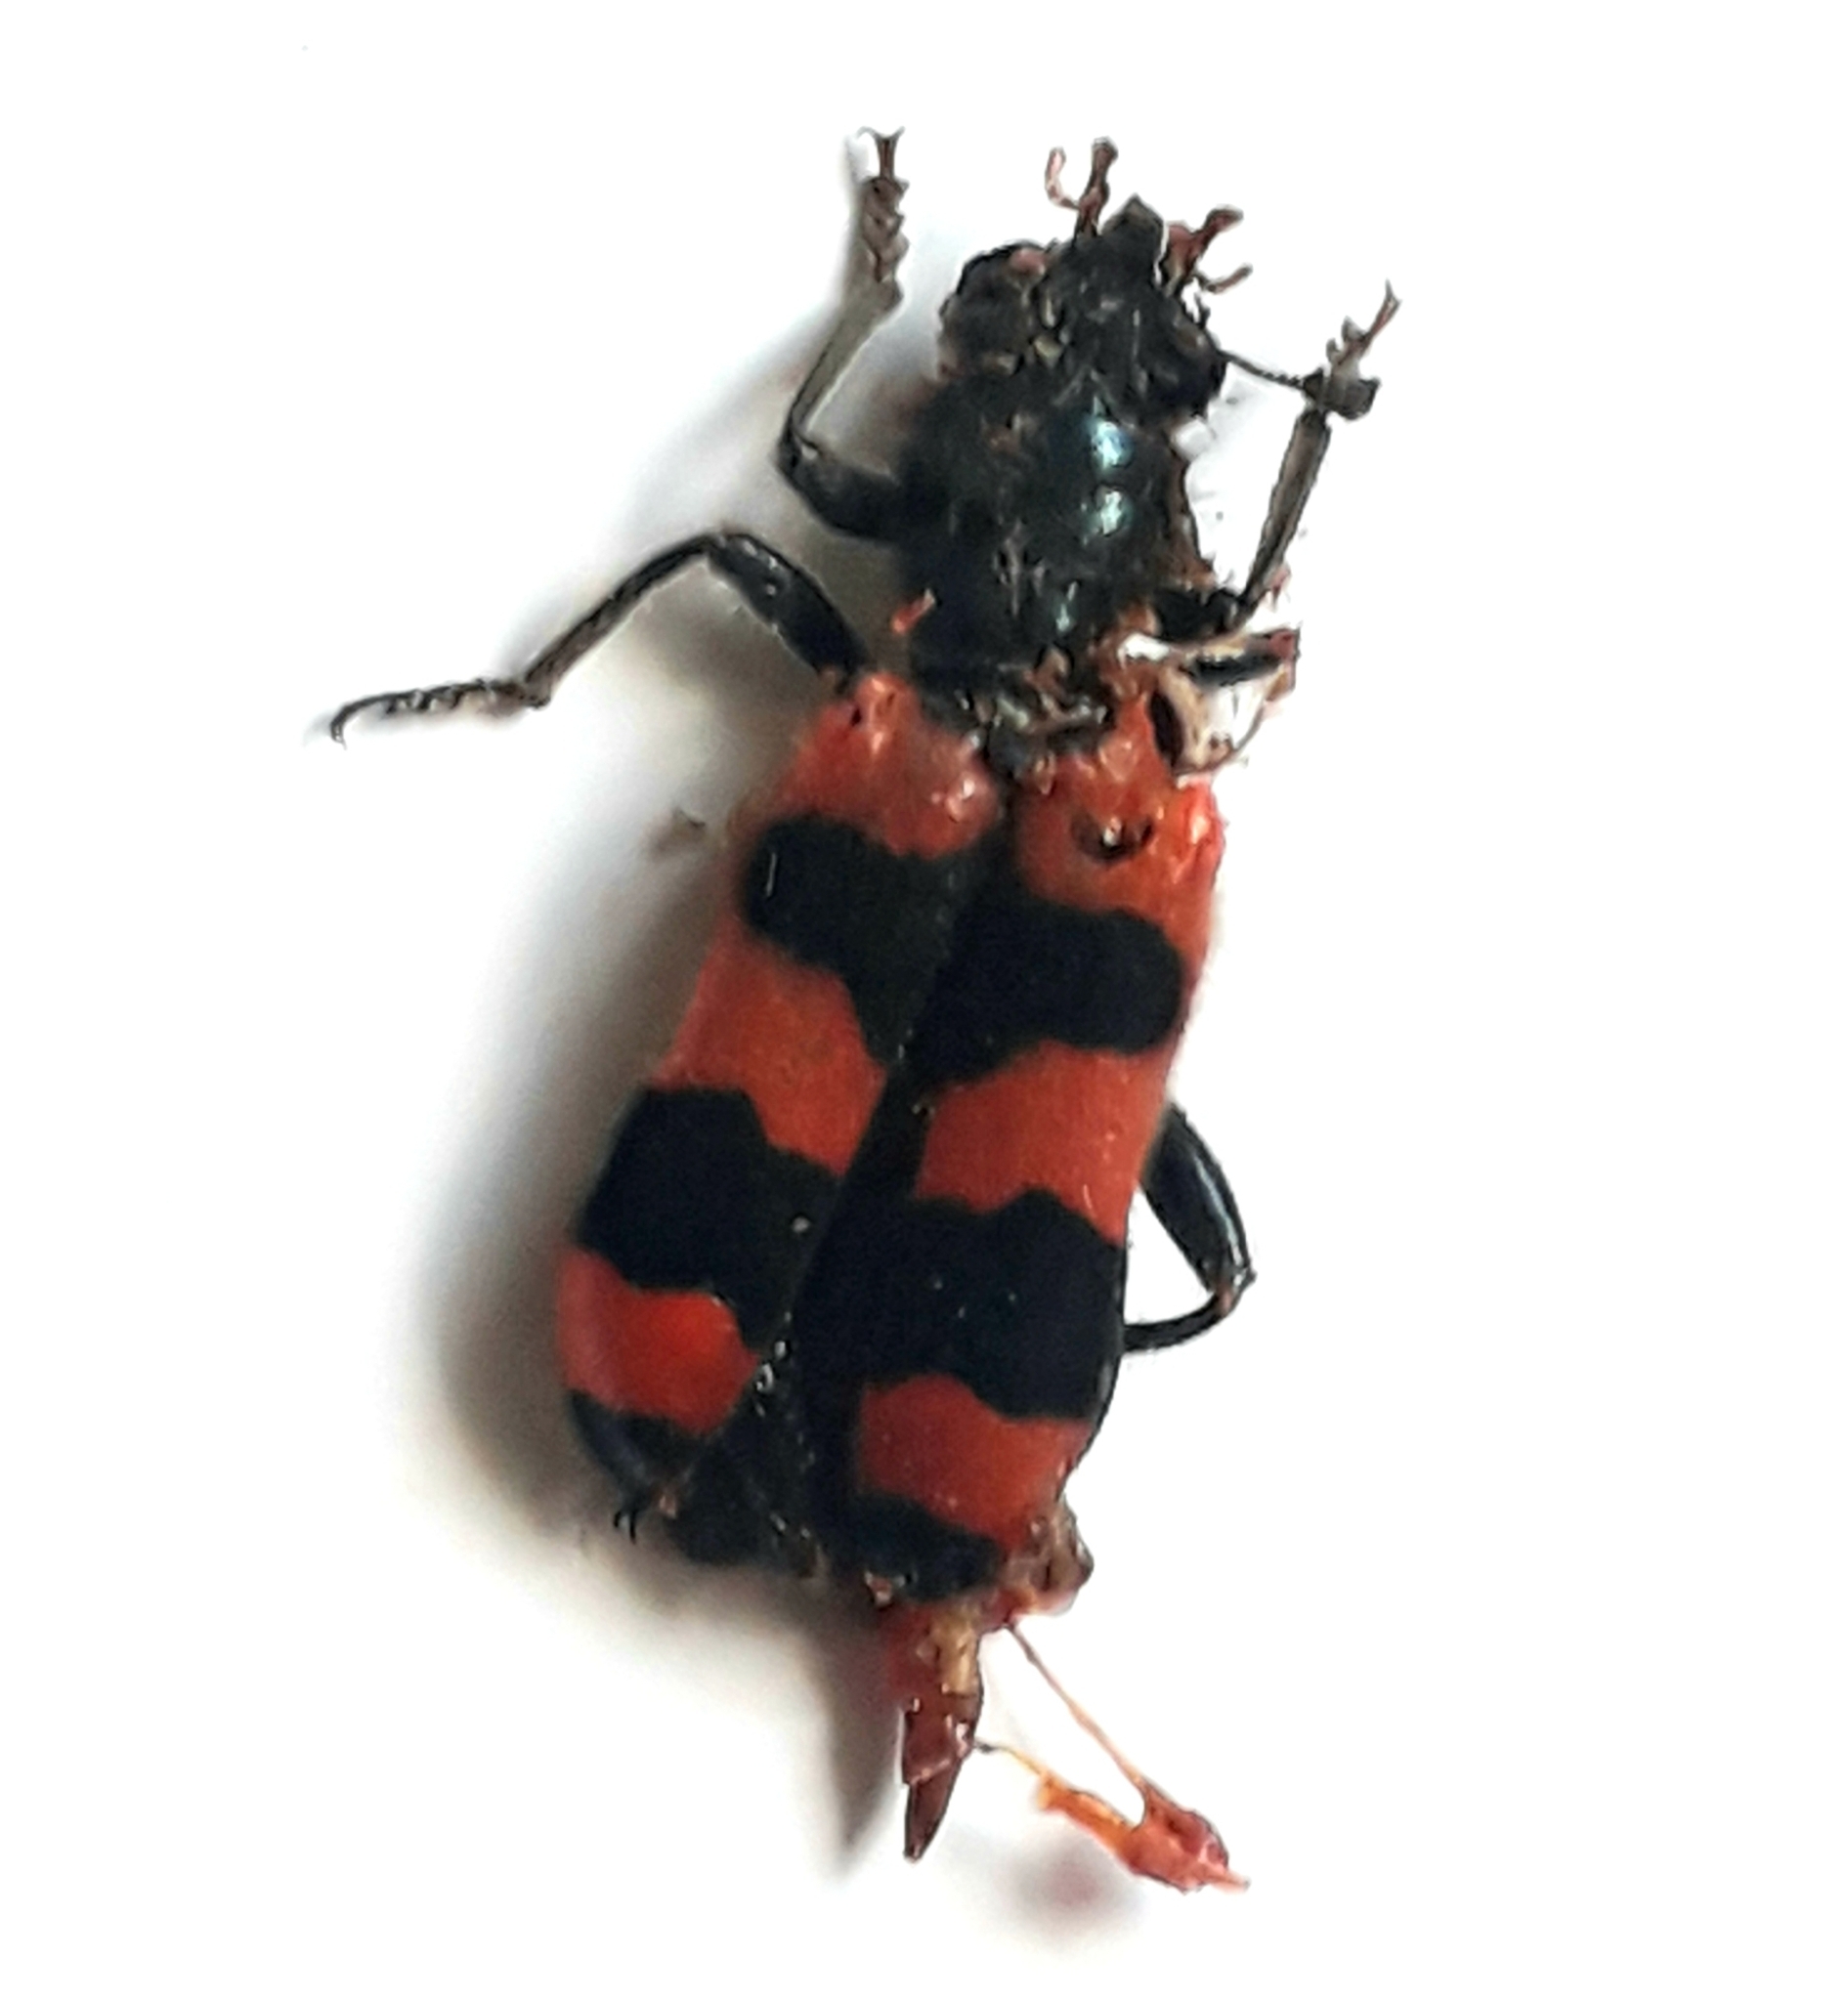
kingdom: Animalia
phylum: Arthropoda
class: Insecta
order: Coleoptera
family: Cleridae
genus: Trichodes
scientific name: Trichodes apiarius
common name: Bee-eating beetle
